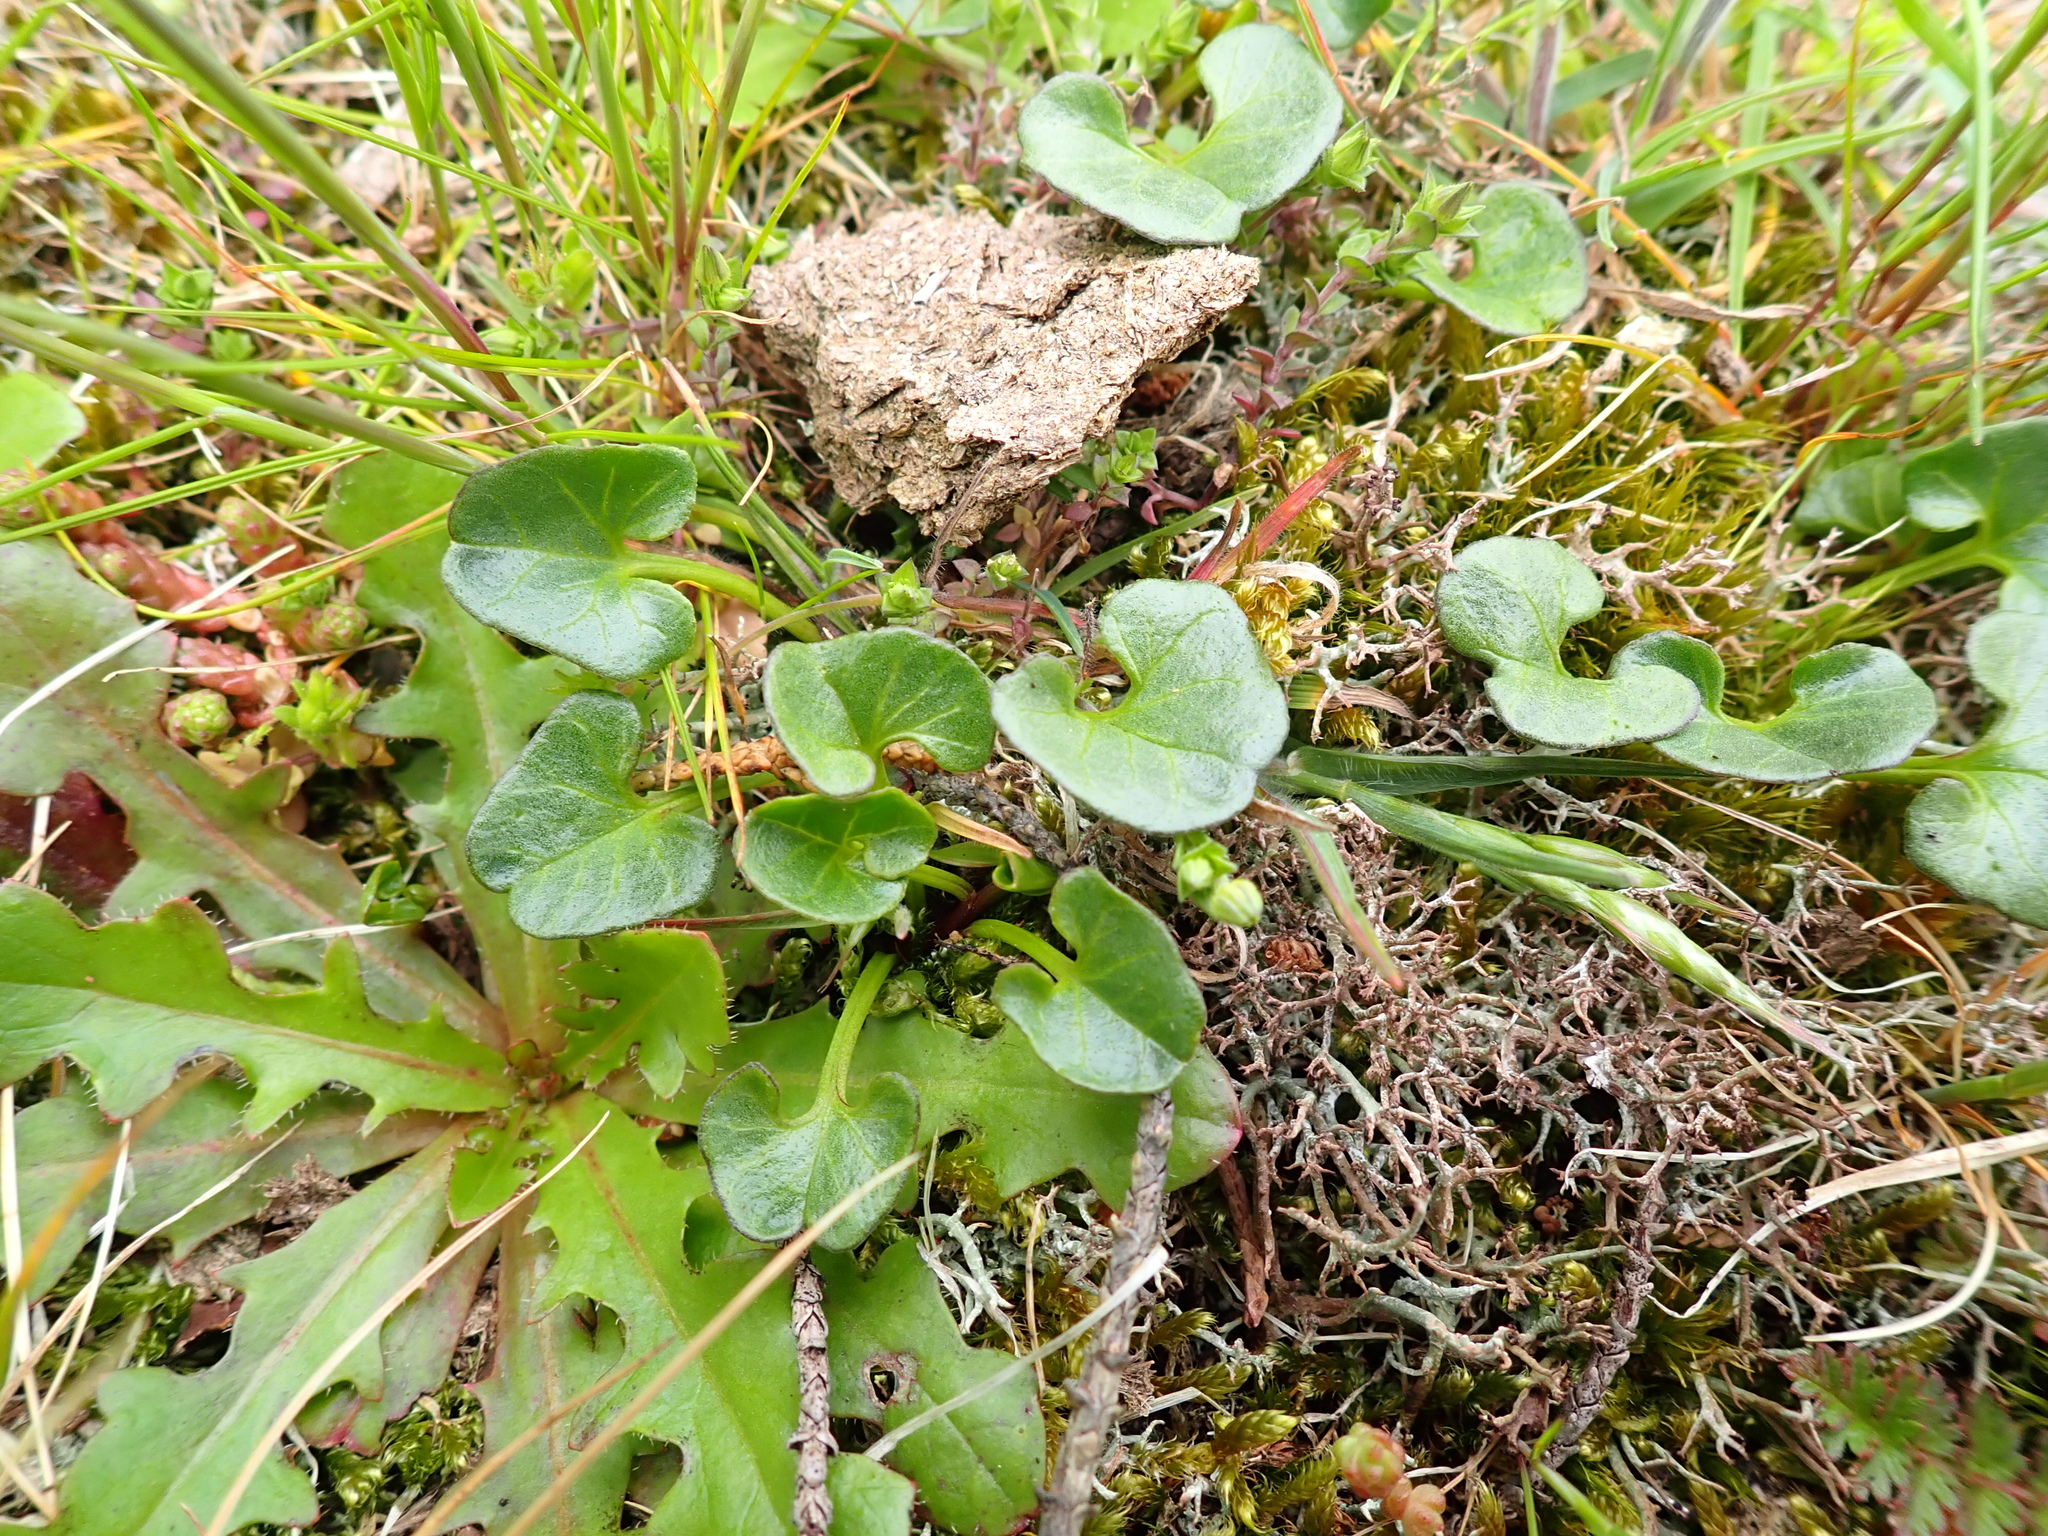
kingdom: Plantae
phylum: Tracheophyta
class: Magnoliopsida
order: Solanales
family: Convolvulaceae
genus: Calystegia
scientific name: Calystegia soldanella
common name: Sea bindweed
